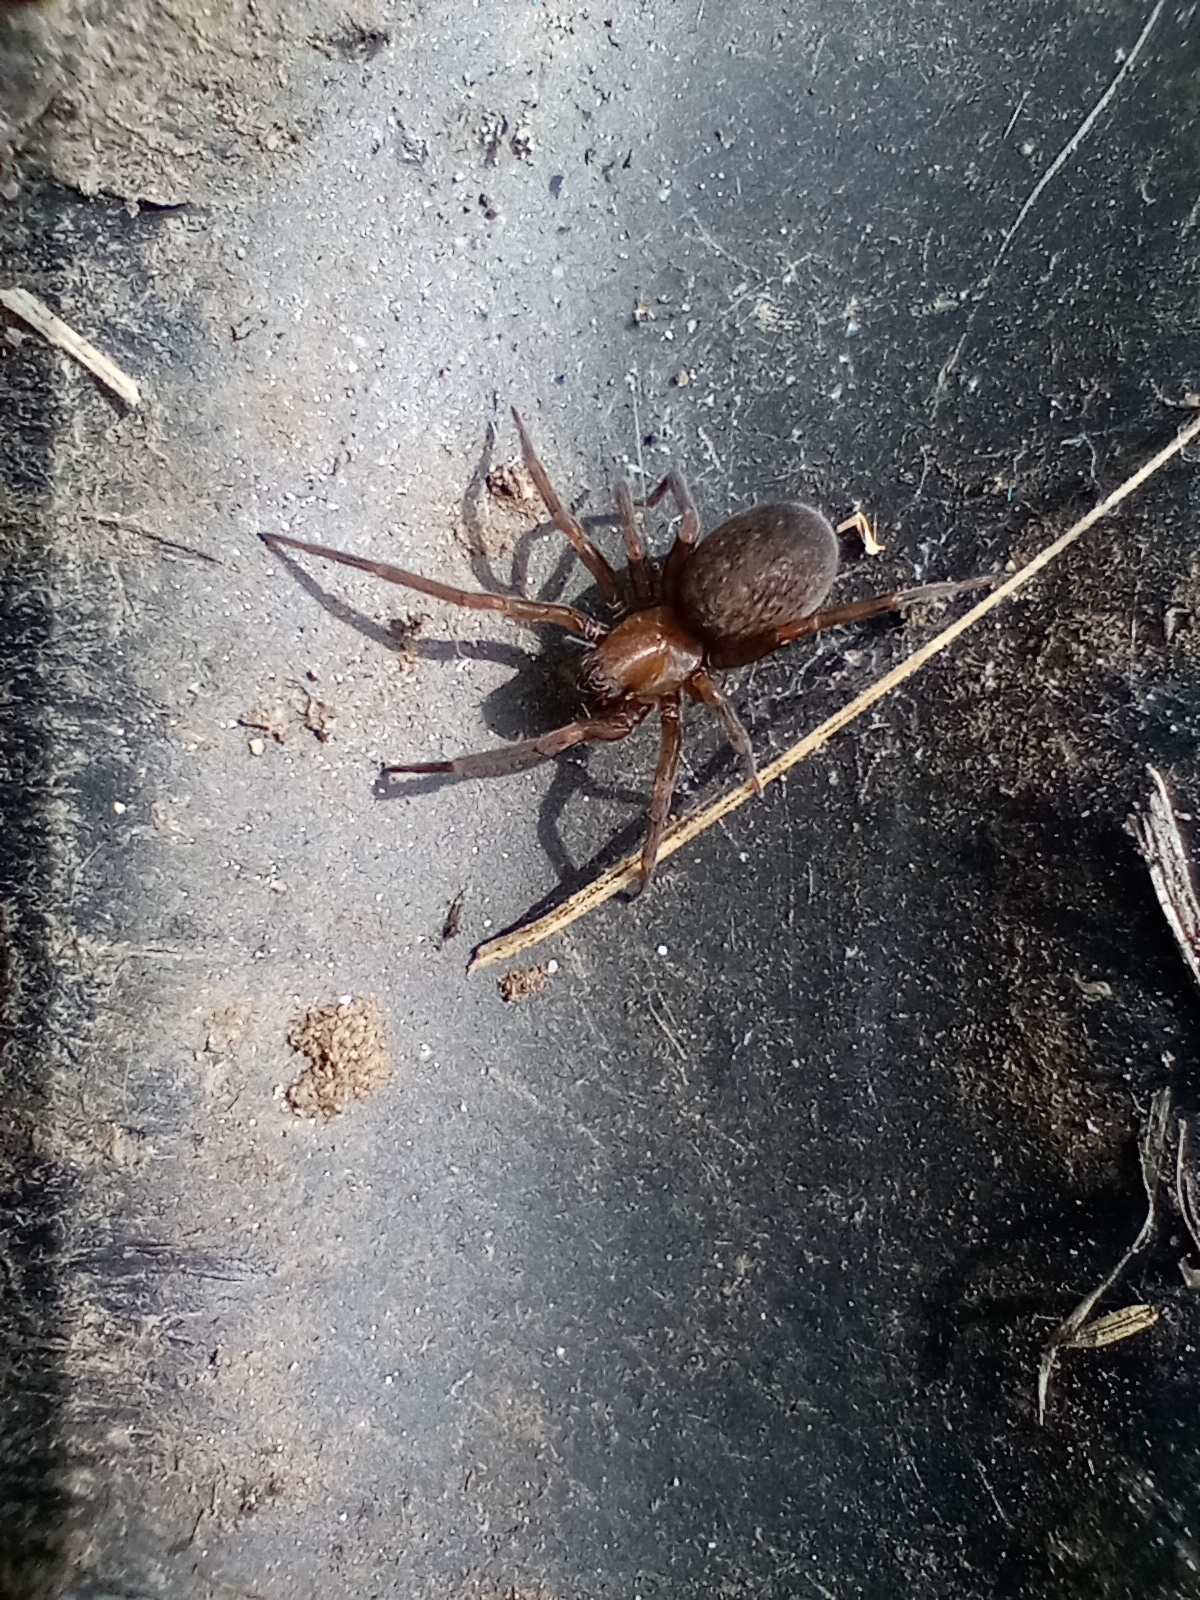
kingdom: Animalia
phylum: Arthropoda
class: Arachnida
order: Araneae
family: Desidae
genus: Metaltella
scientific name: Metaltella simoni
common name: Cribellate spider
